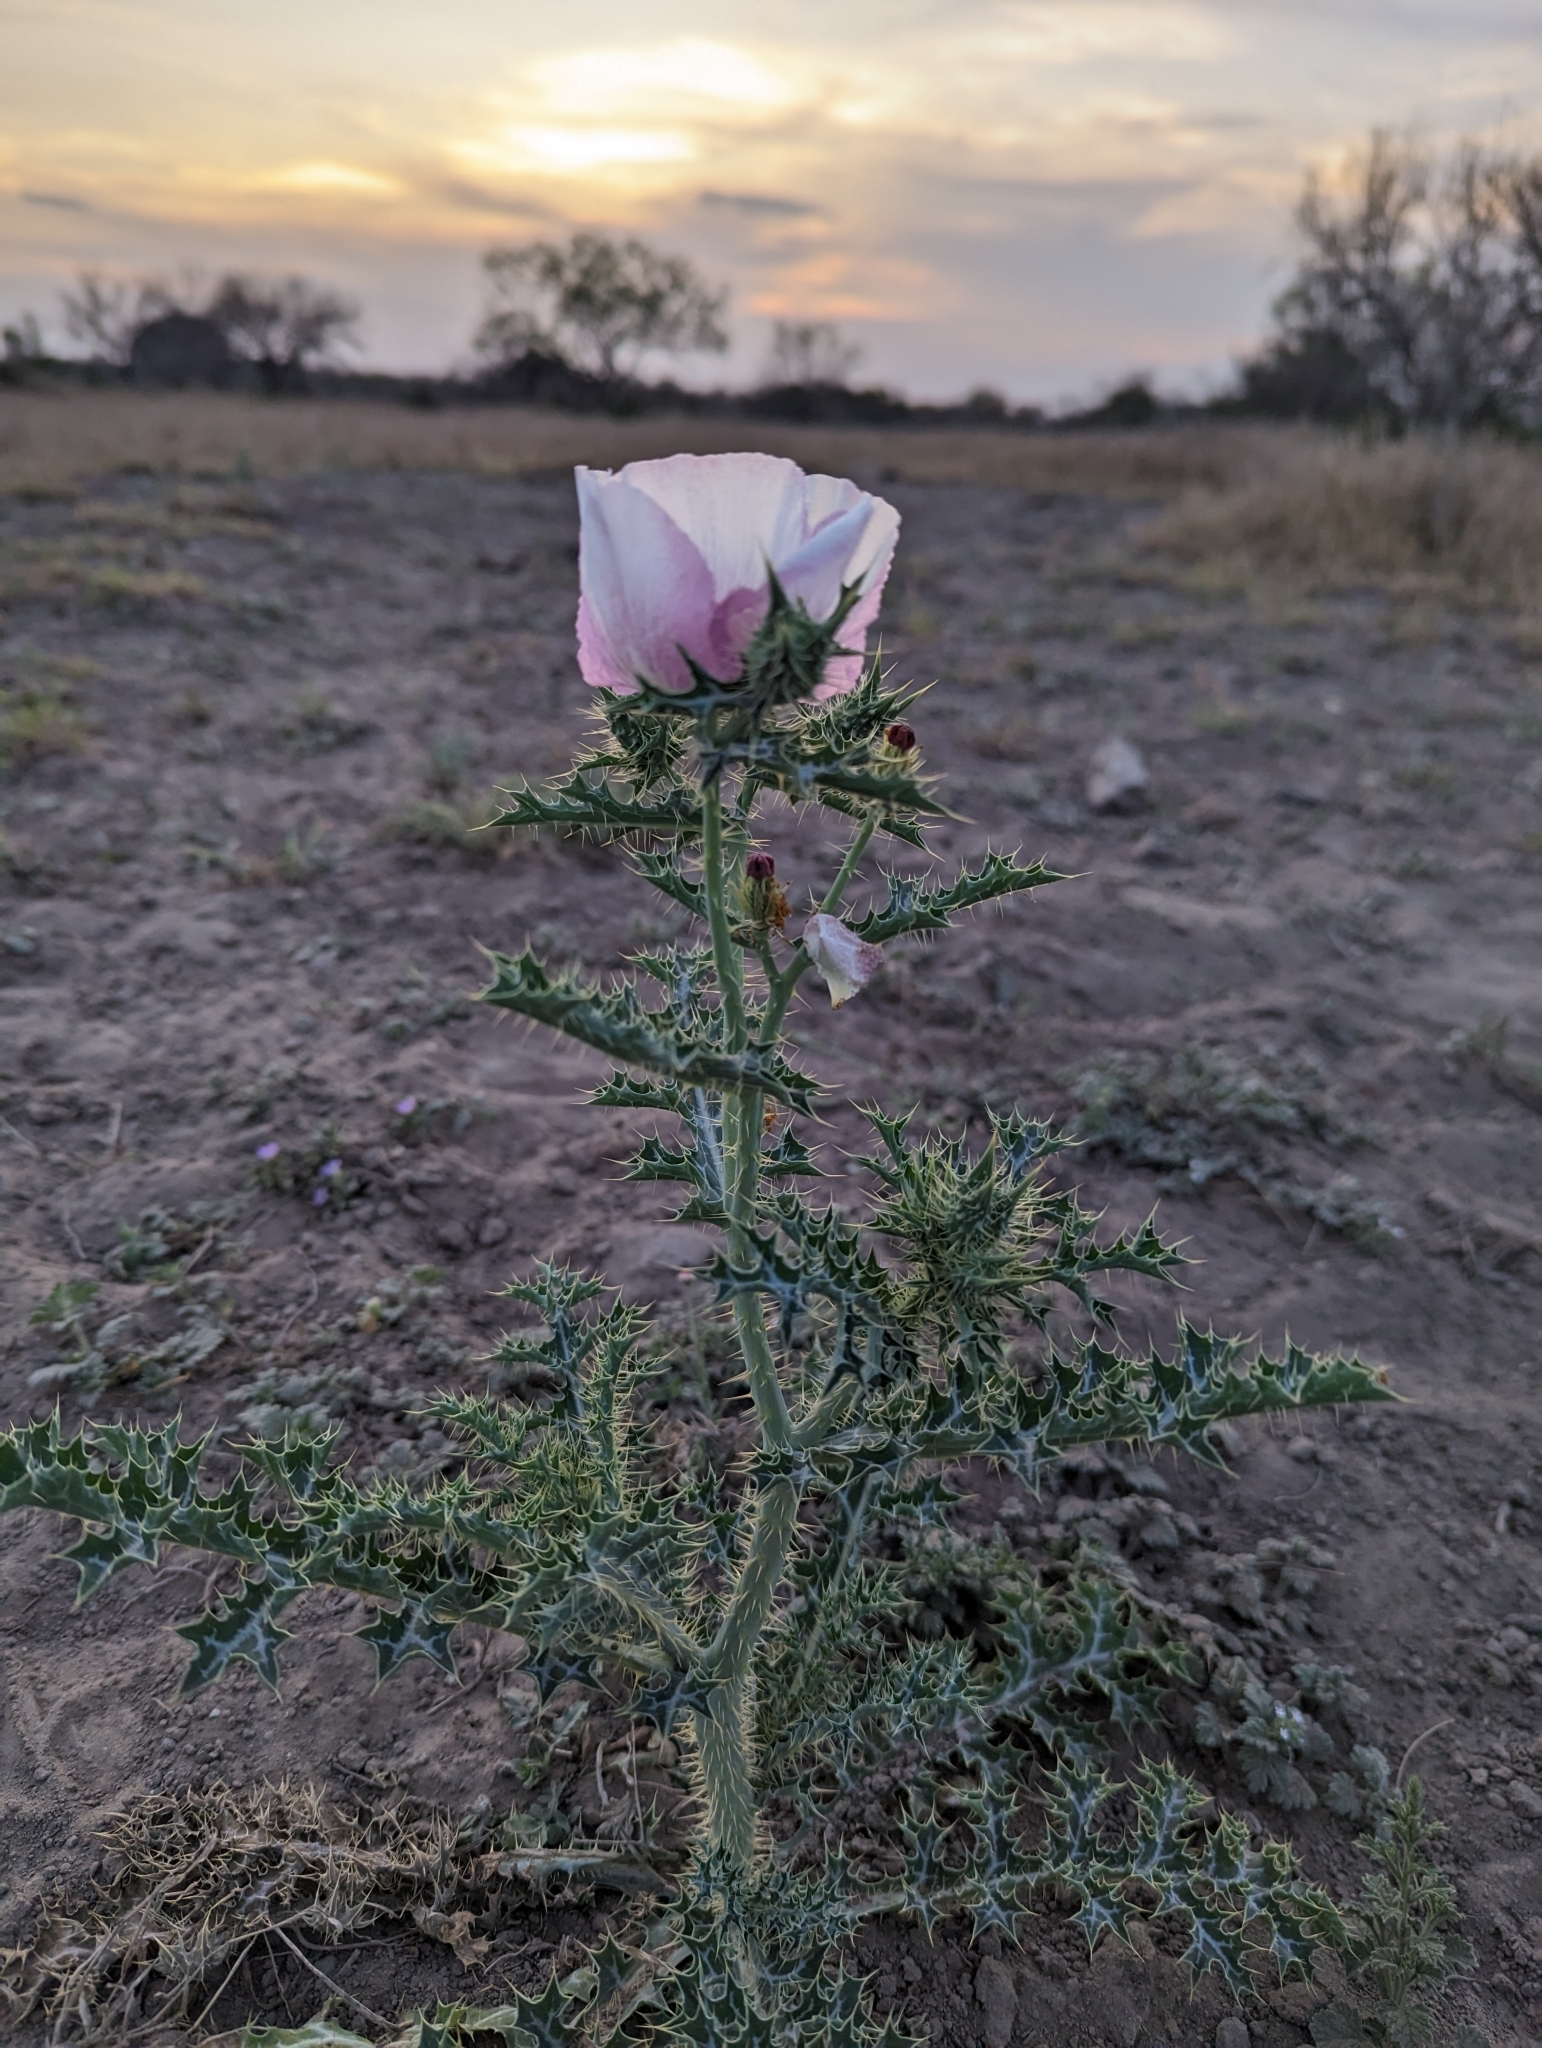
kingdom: Plantae
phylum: Tracheophyta
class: Magnoliopsida
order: Ranunculales
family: Papaveraceae
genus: Argemone
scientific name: Argemone sanguinea
